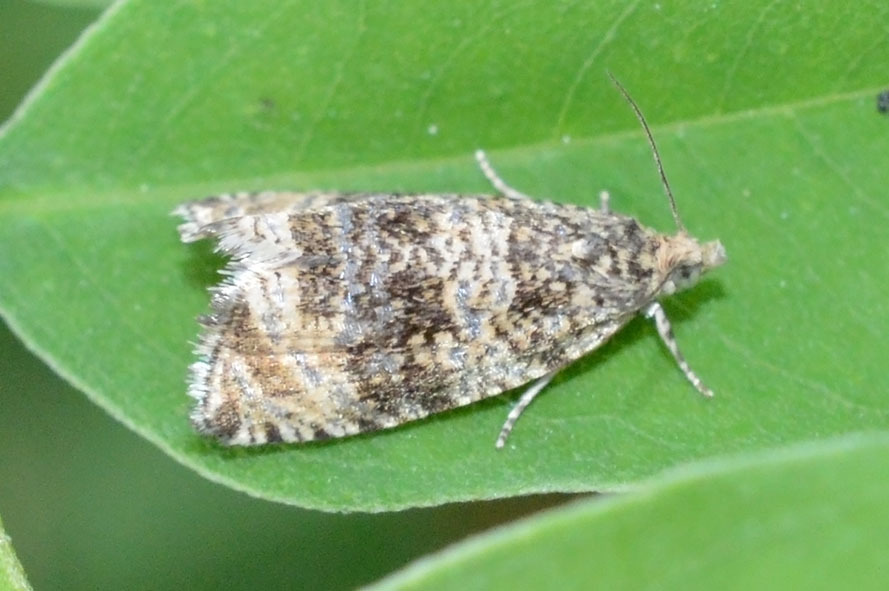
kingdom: Animalia
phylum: Arthropoda
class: Insecta
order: Lepidoptera
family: Tortricidae
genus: Syricoris
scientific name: Syricoris lacunana
